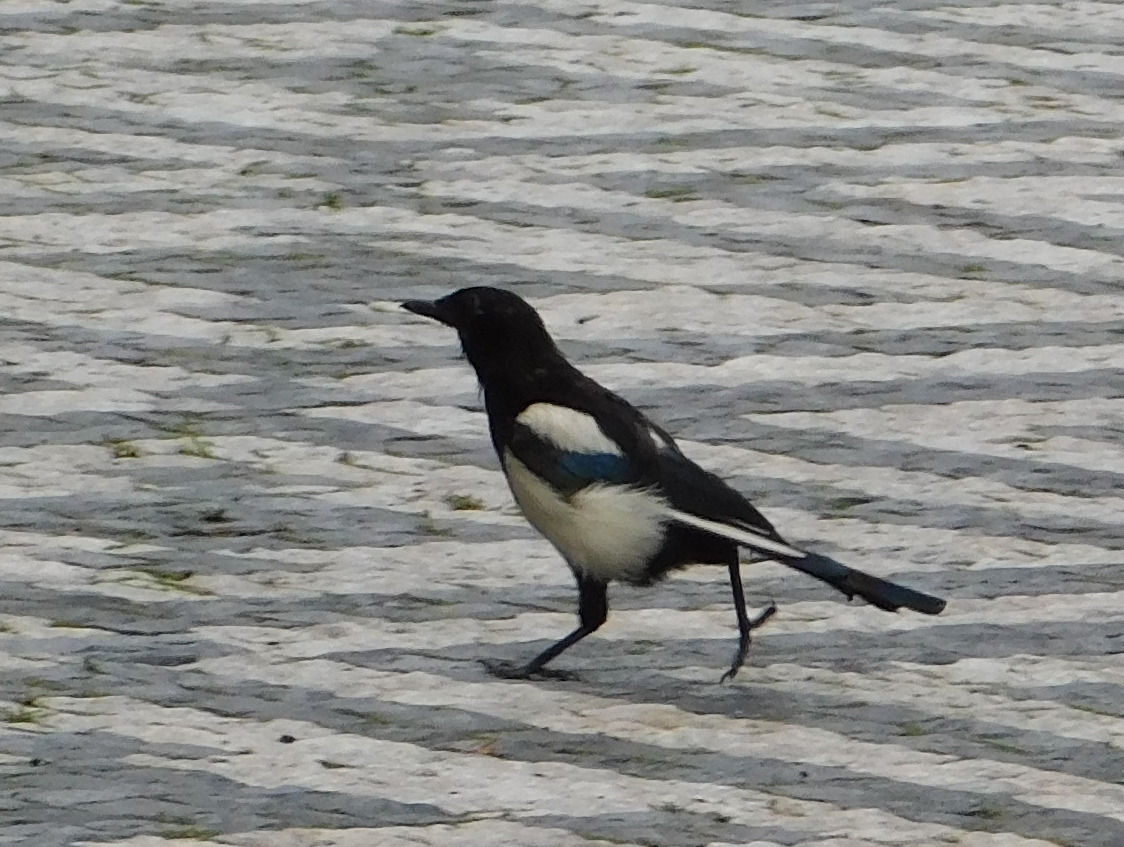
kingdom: Animalia
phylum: Chordata
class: Aves
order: Passeriformes
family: Corvidae
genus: Pica
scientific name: Pica pica
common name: Eurasian magpie
